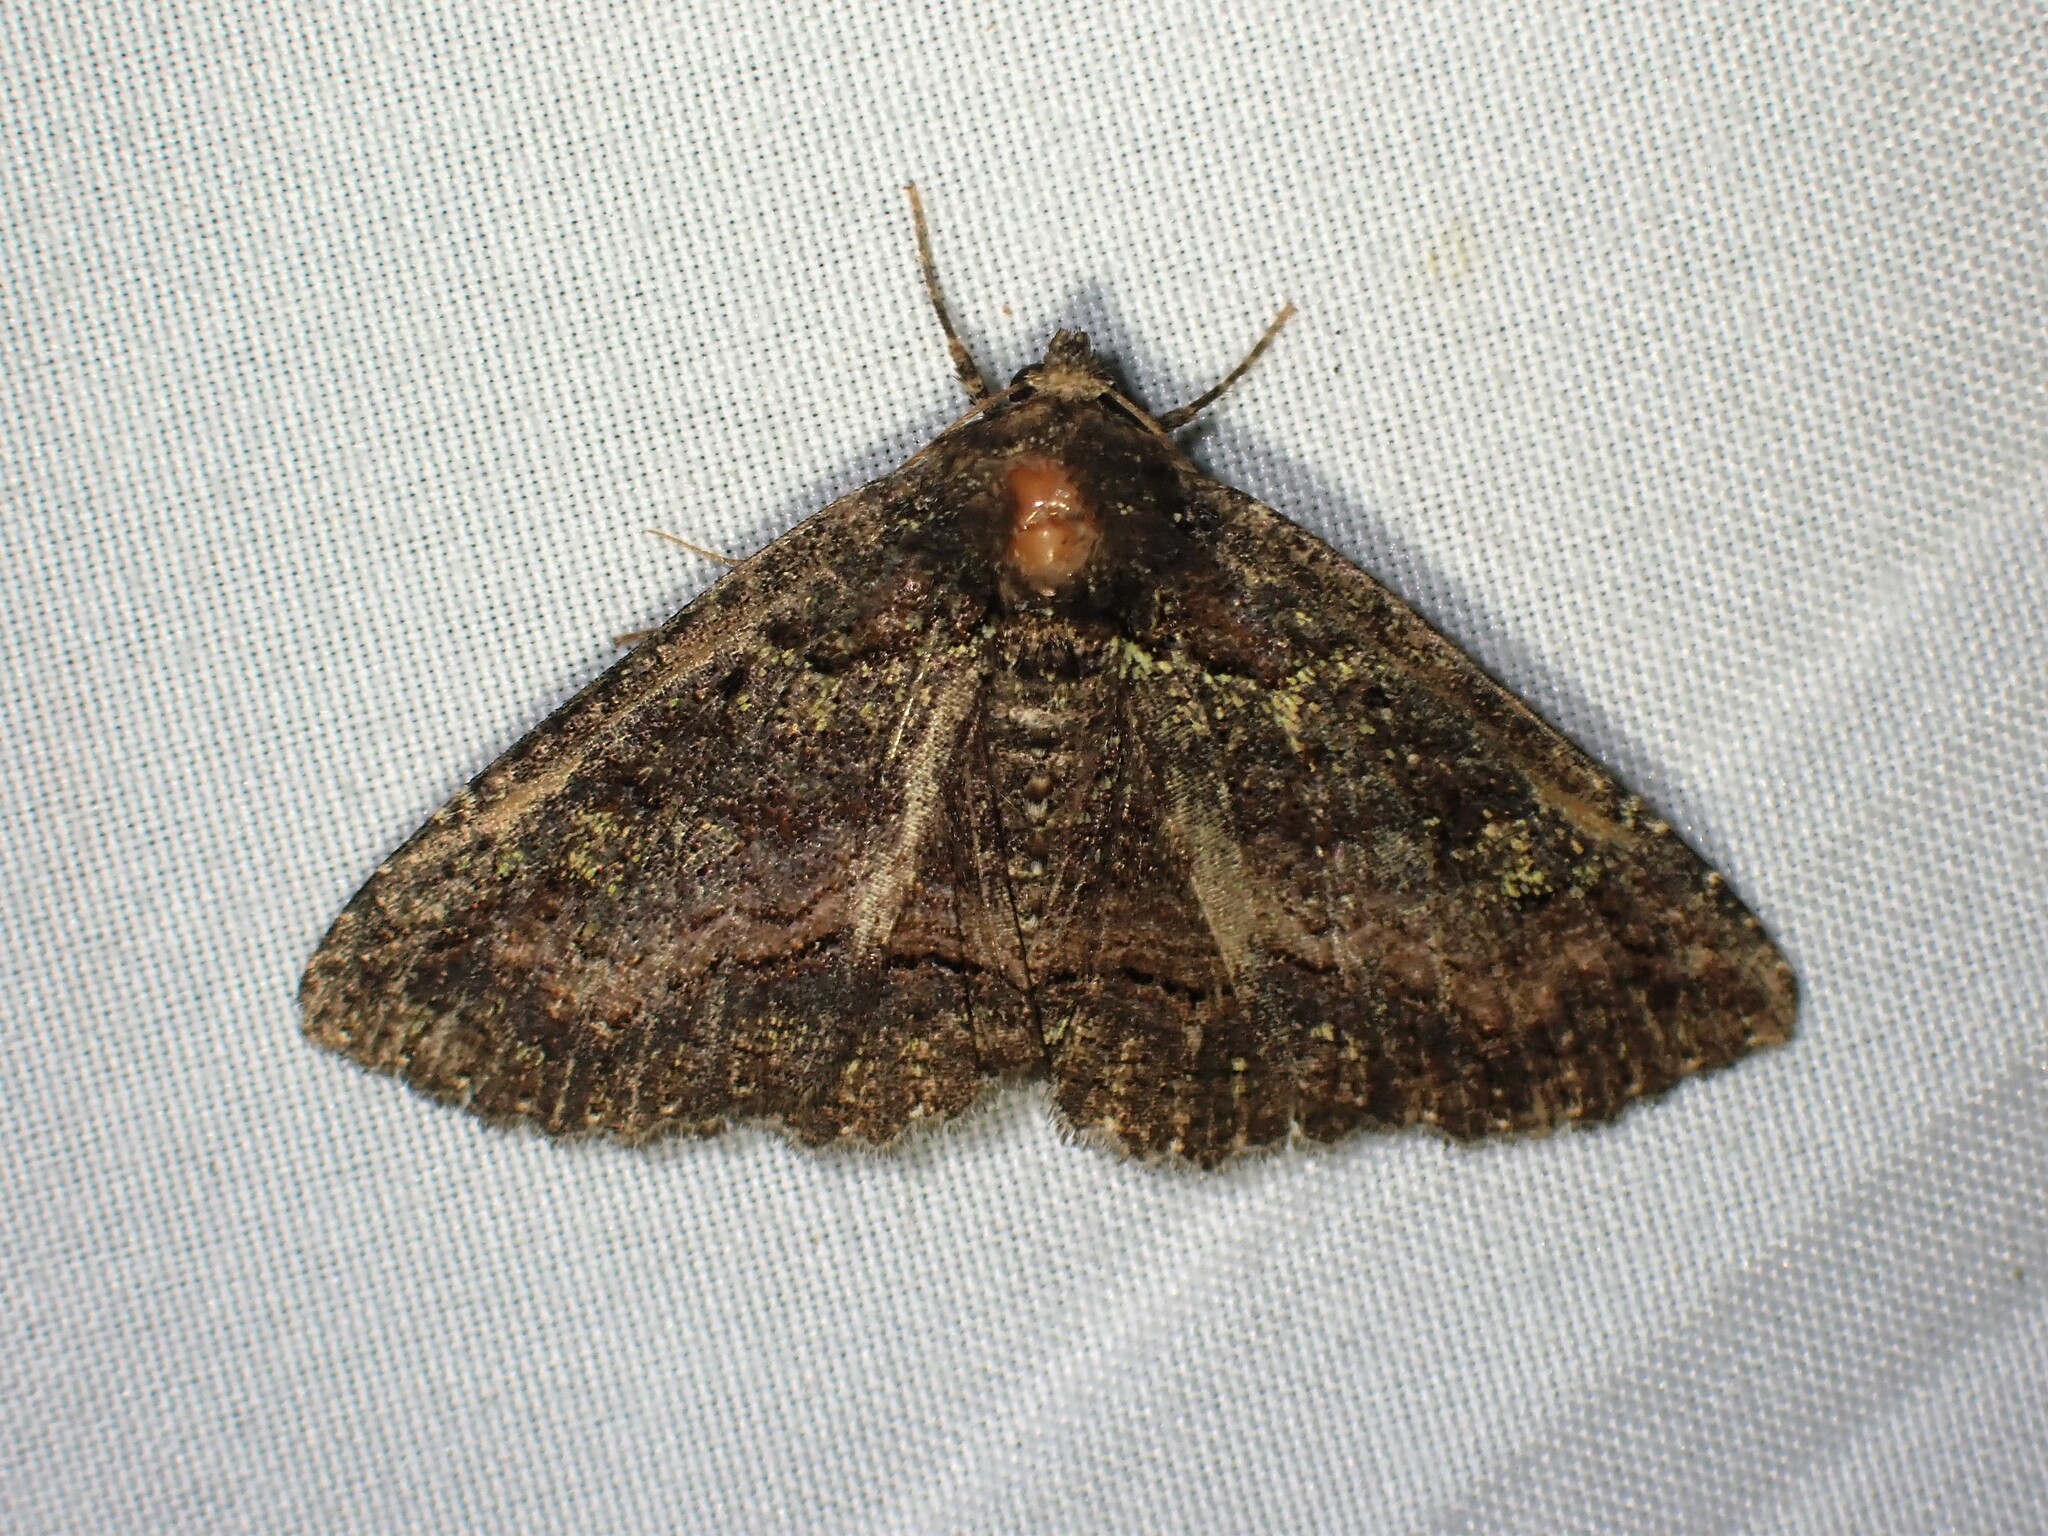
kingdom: Animalia
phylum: Arthropoda
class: Insecta
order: Lepidoptera
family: Erebidae
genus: Zale
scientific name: Zale aeruginosa
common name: Green-dusted zale moth
